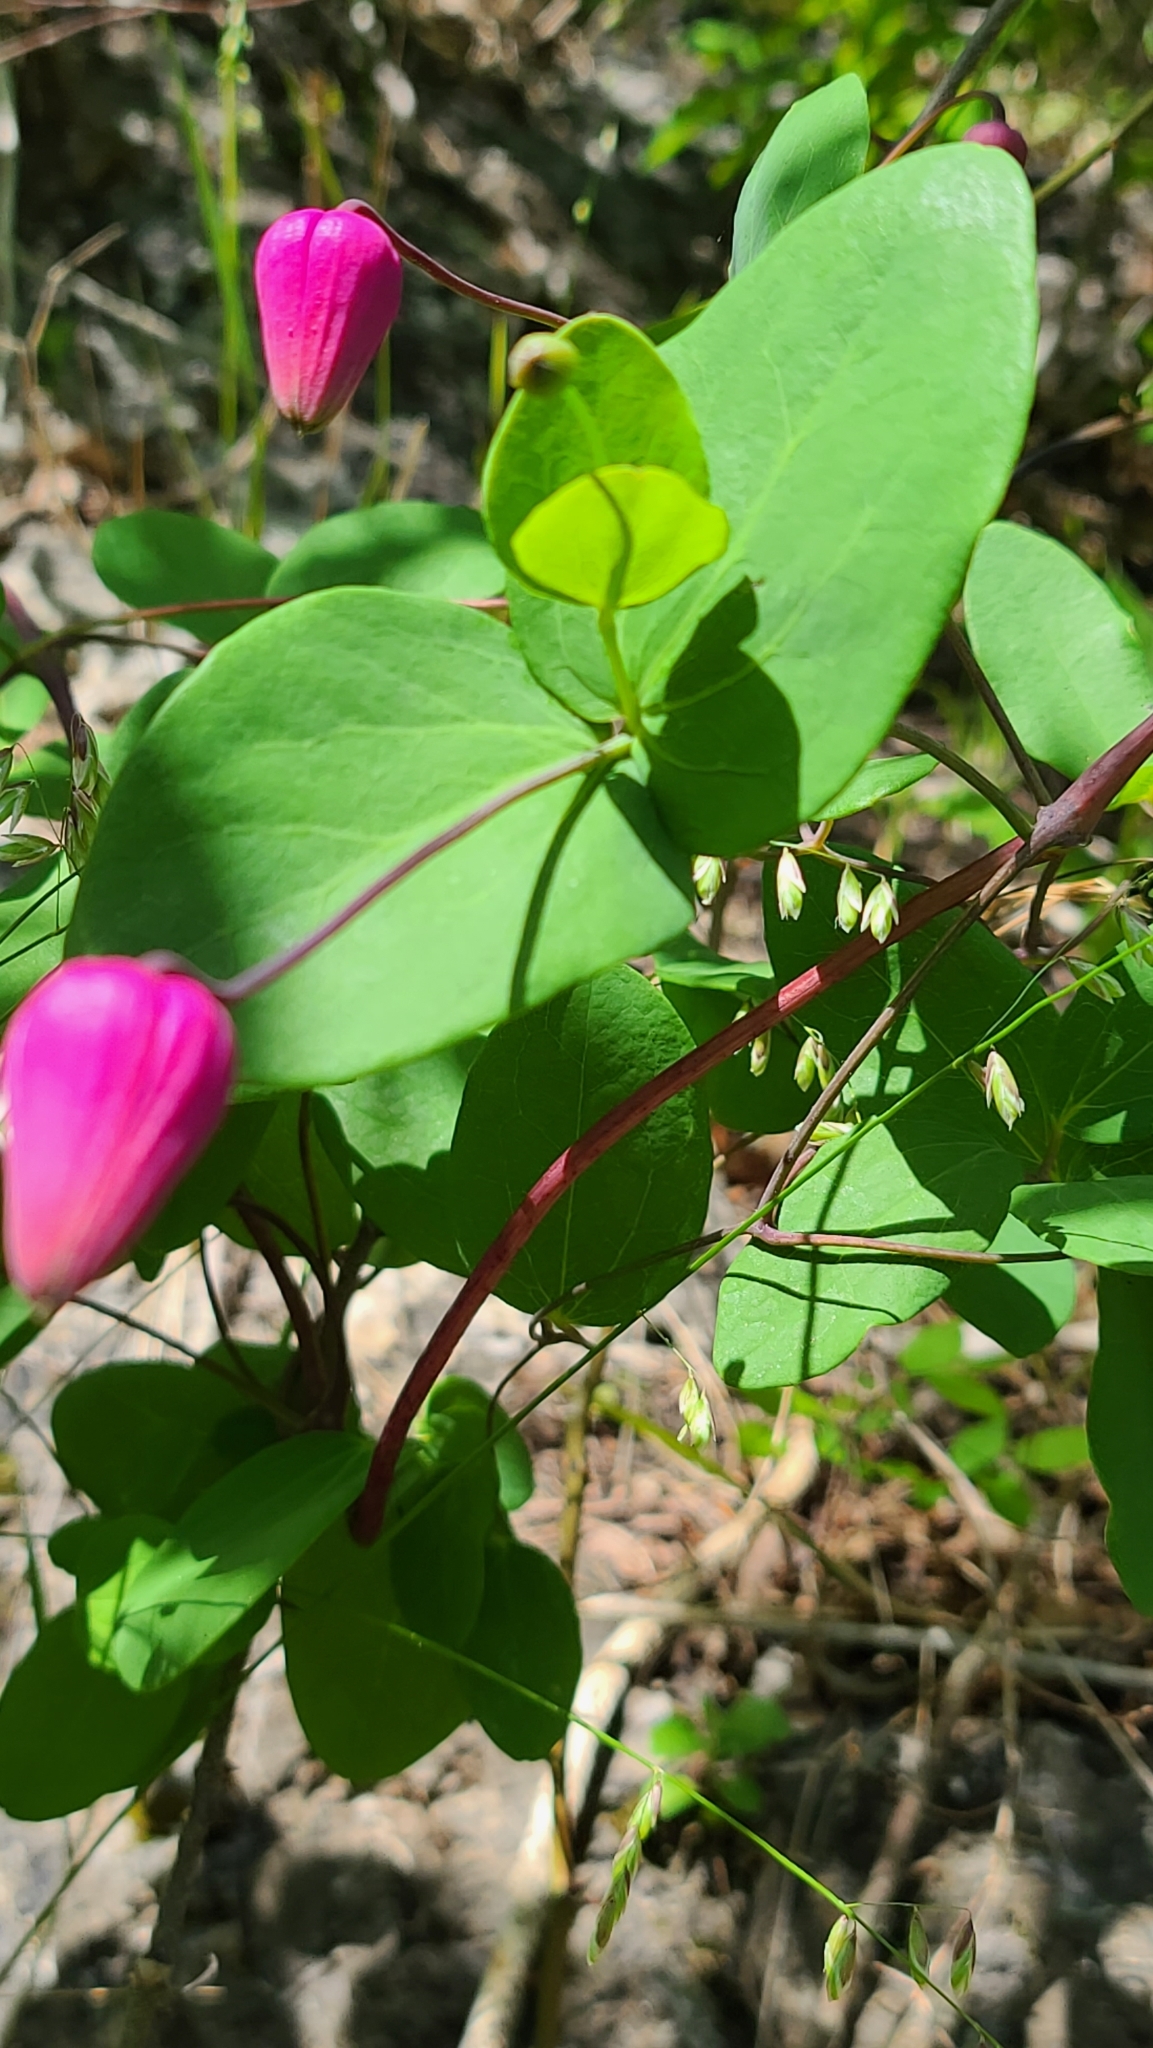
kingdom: Plantae
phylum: Tracheophyta
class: Magnoliopsida
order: Ranunculales
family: Ranunculaceae
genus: Clematis
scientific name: Clematis glaucophylla
